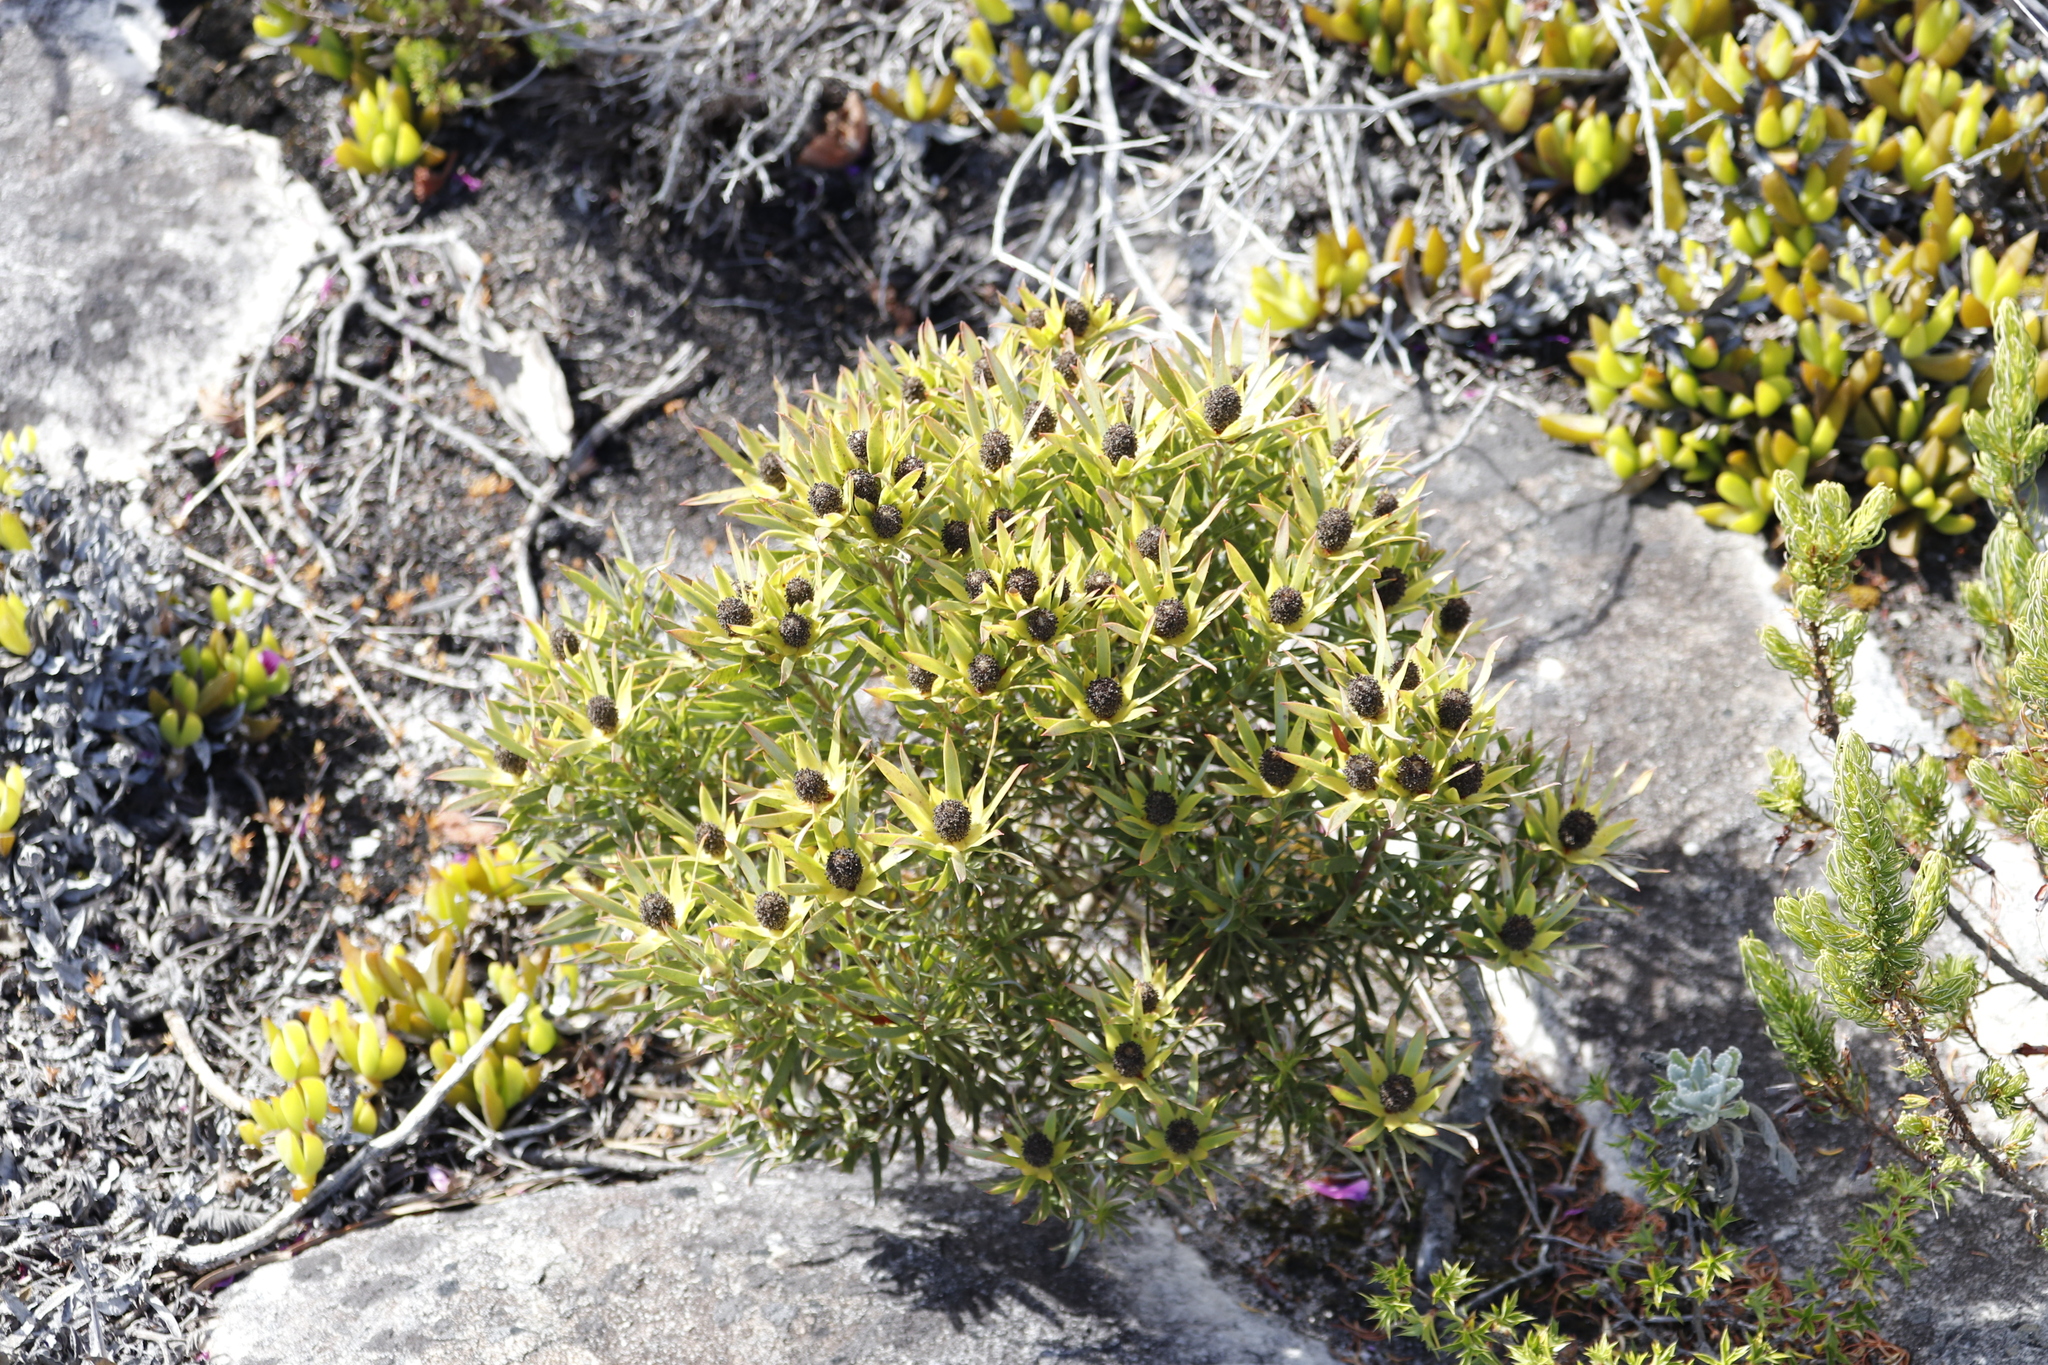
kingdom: Plantae
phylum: Tracheophyta
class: Magnoliopsida
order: Proteales
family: Proteaceae
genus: Leucadendron
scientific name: Leucadendron xanthoconus
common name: Sickle-leaf conebush
